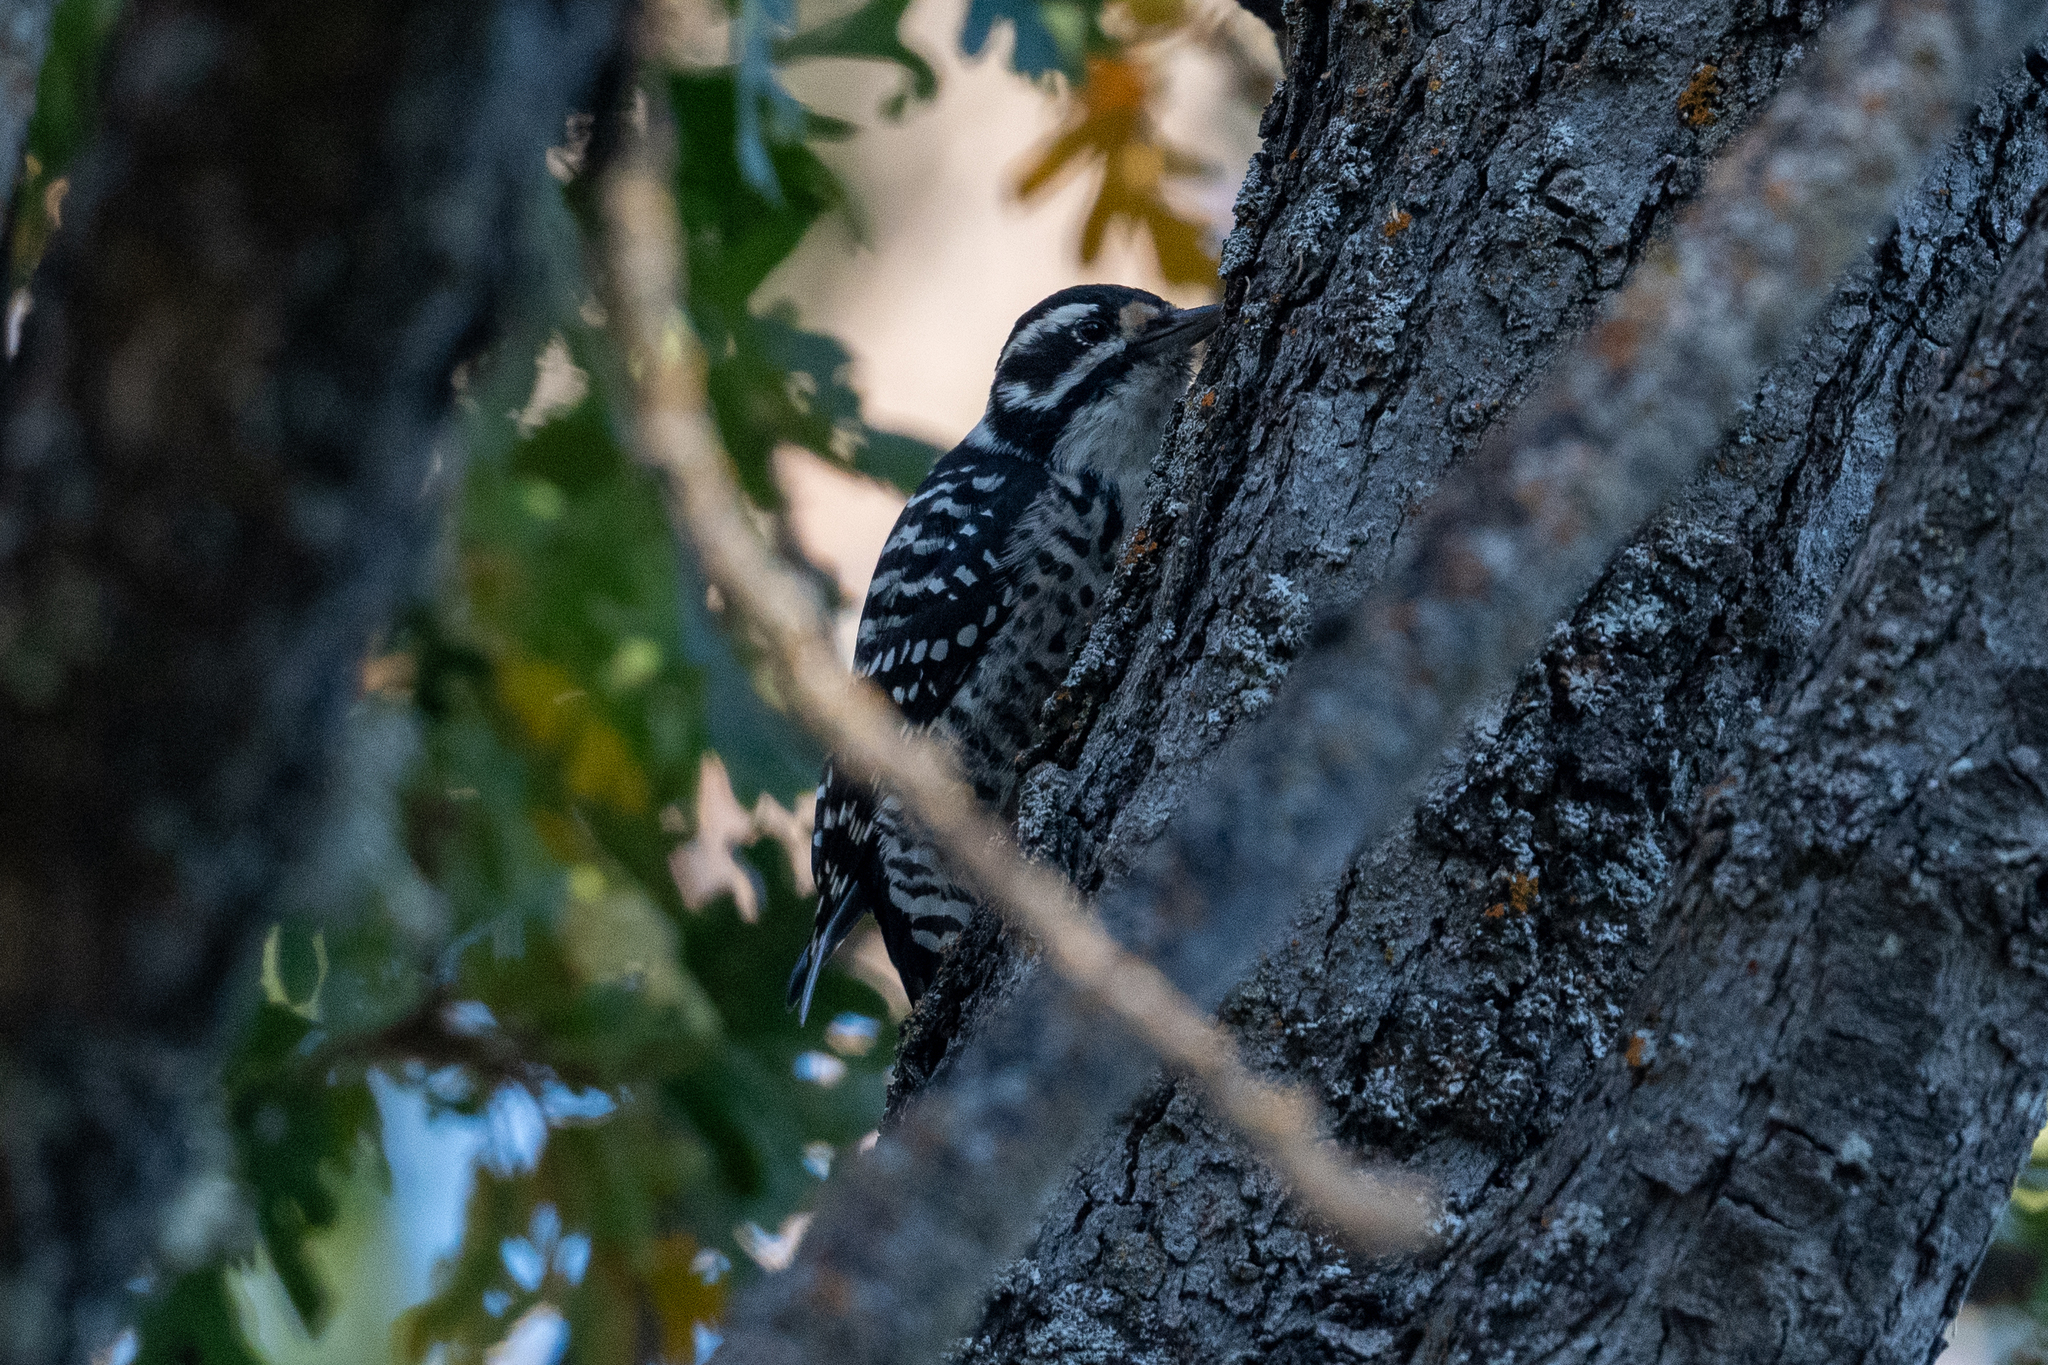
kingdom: Animalia
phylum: Chordata
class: Aves
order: Piciformes
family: Picidae
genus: Dryobates
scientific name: Dryobates nuttallii
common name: Nuttall's woodpecker
